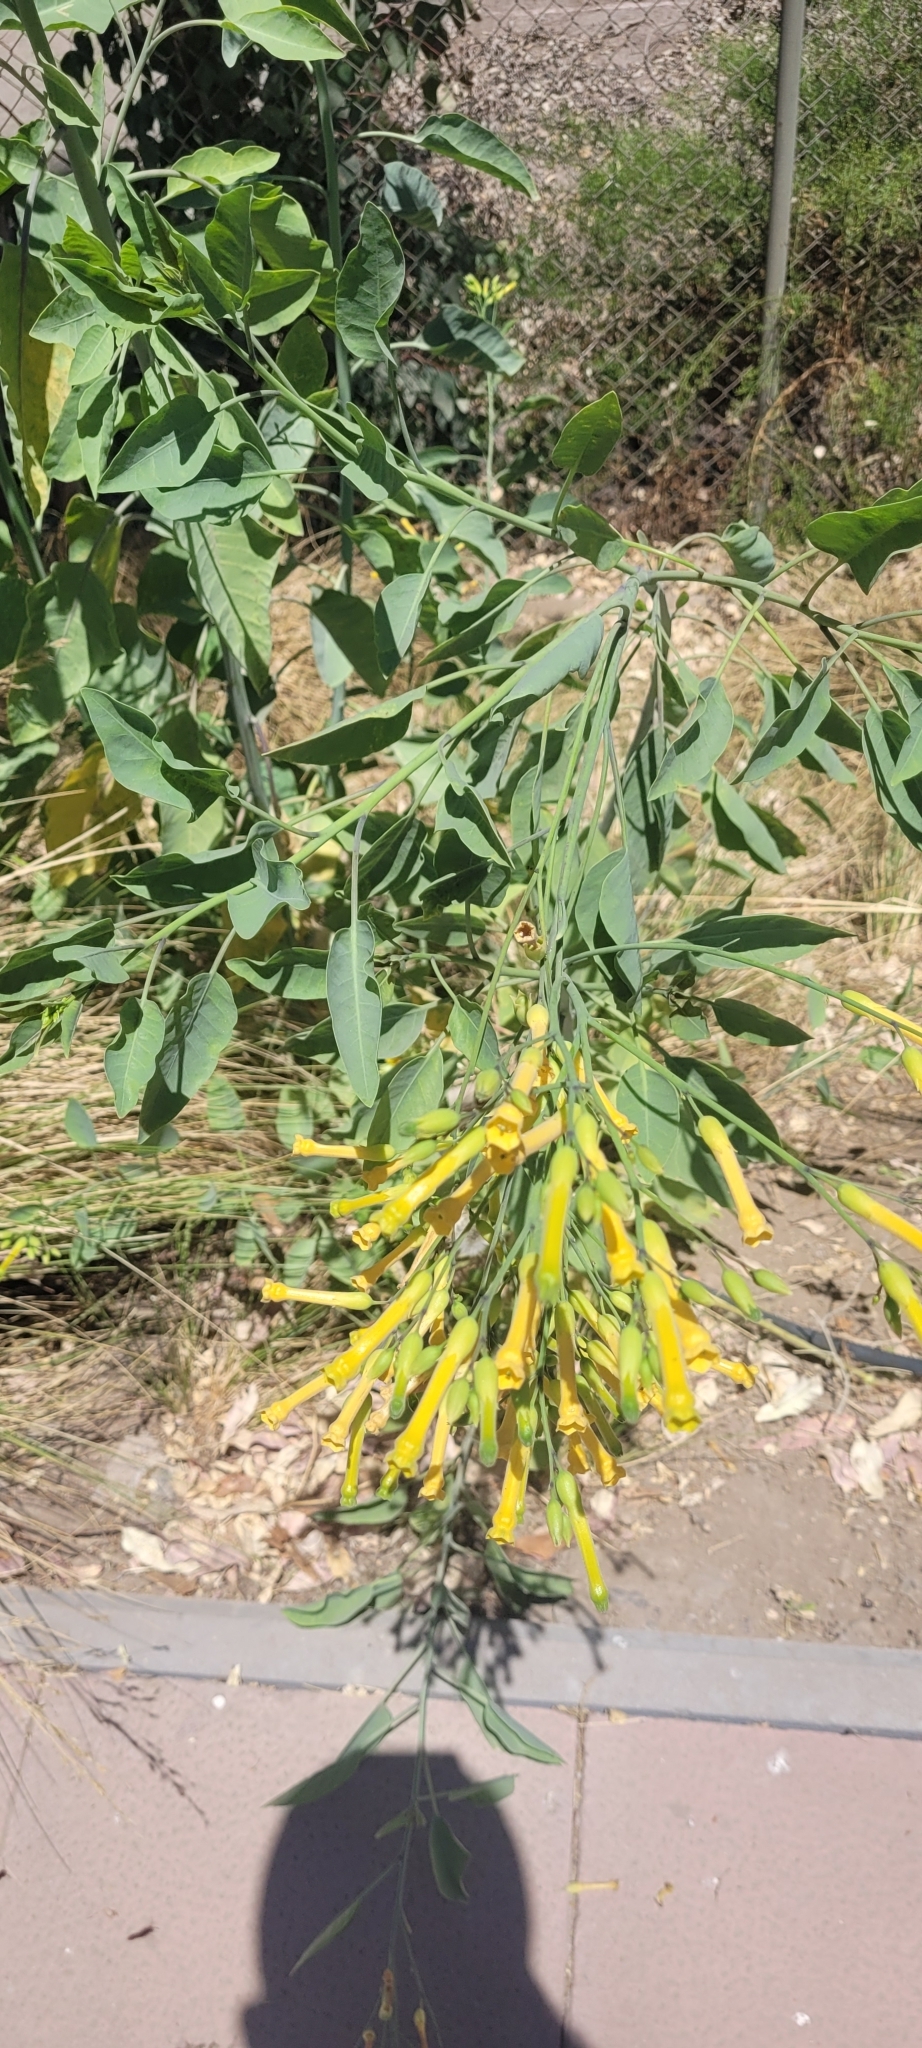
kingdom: Plantae
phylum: Tracheophyta
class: Magnoliopsida
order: Solanales
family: Solanaceae
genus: Nicotiana
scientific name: Nicotiana glauca
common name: Tree tobacco
